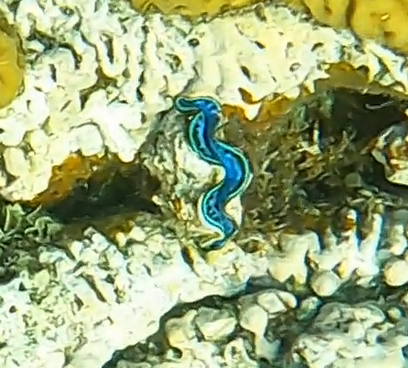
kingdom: Animalia
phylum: Mollusca
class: Bivalvia
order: Cardiida
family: Cardiidae
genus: Tridacna
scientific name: Tridacna maxima
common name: Small giant clam
